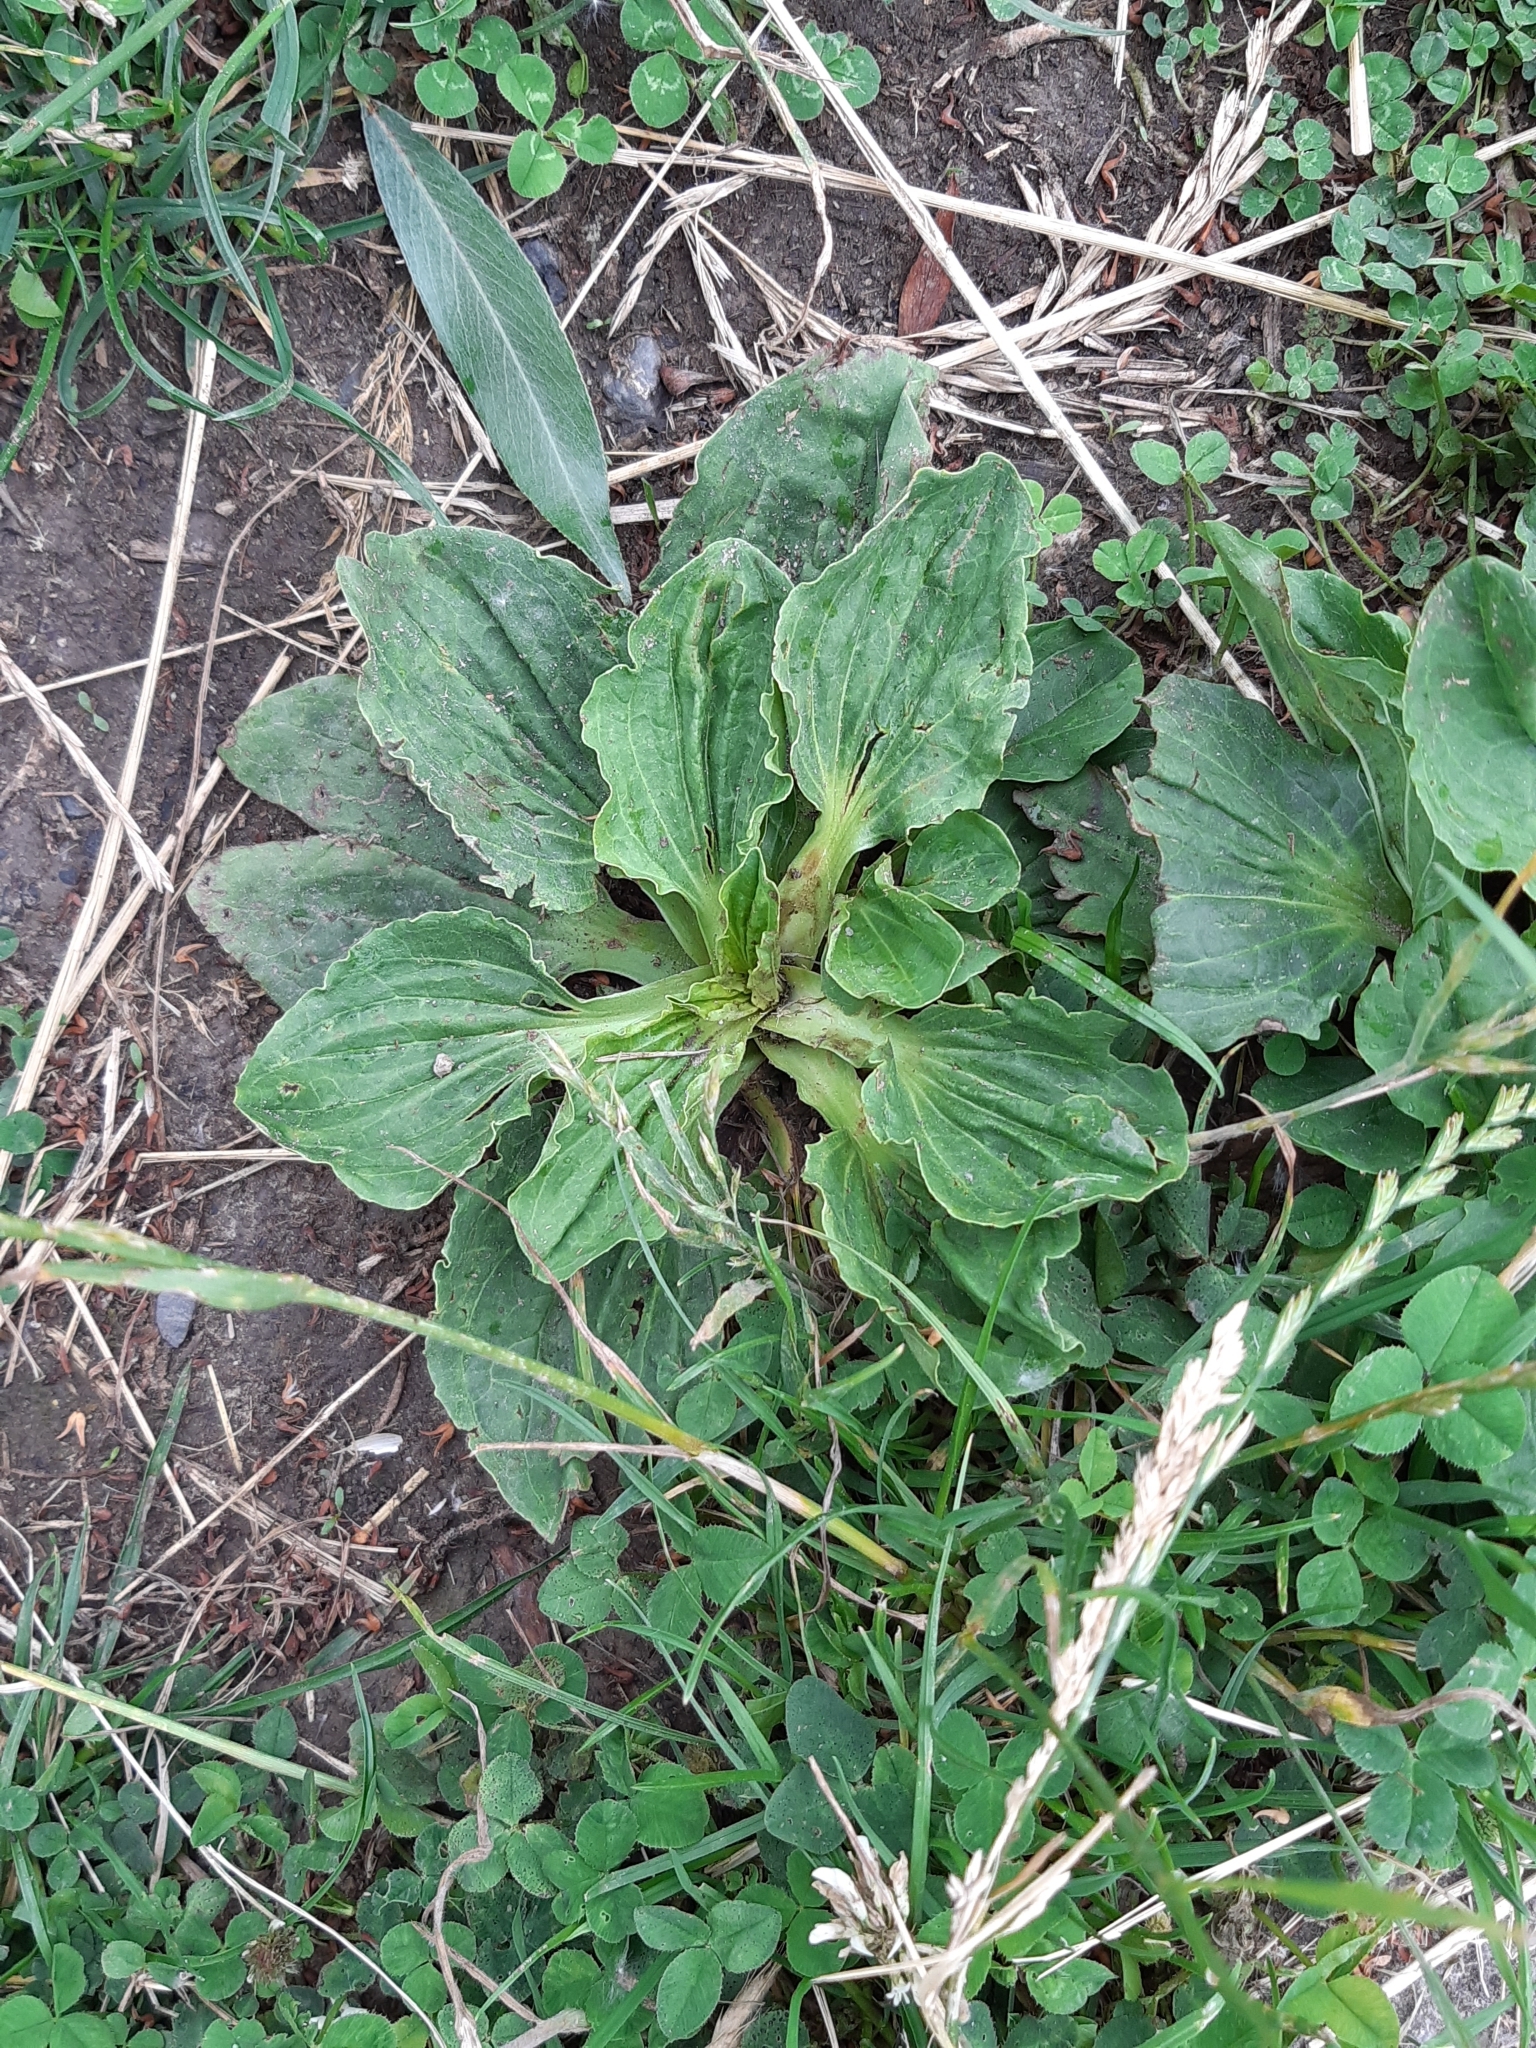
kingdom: Plantae
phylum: Tracheophyta
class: Magnoliopsida
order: Lamiales
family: Plantaginaceae
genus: Plantago
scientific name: Plantago major
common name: Common plantain
